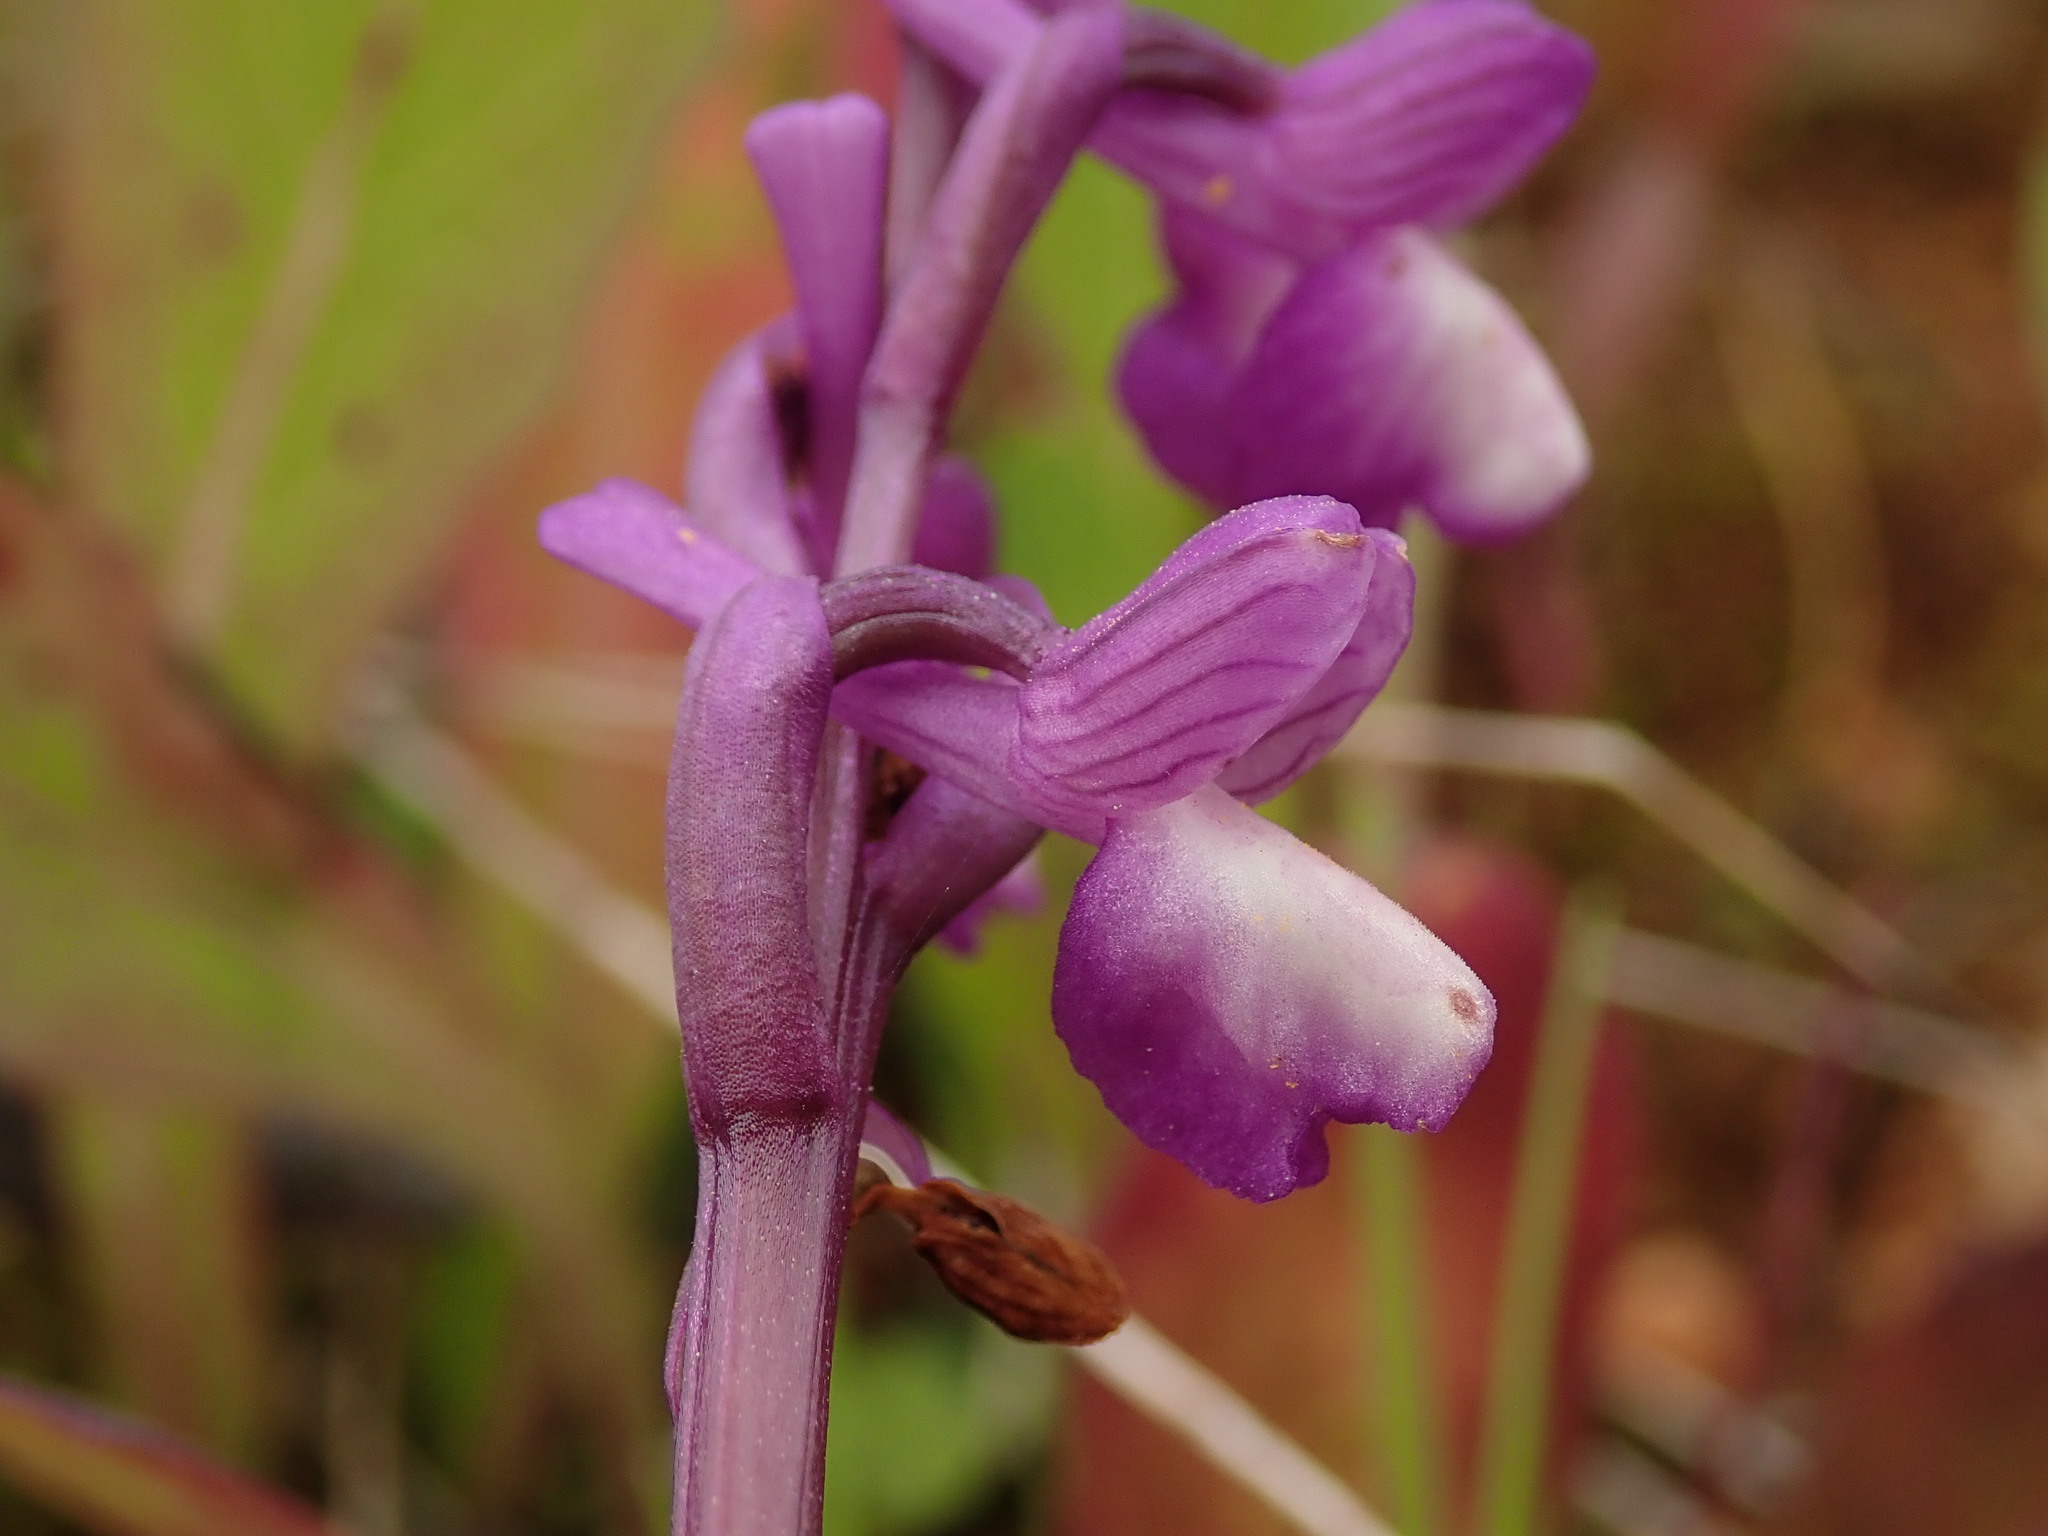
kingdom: Plantae
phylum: Tracheophyta
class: Liliopsida
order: Asparagales
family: Orchidaceae
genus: Anacamptis
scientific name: Anacamptis morio
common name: Green-winged orchid
